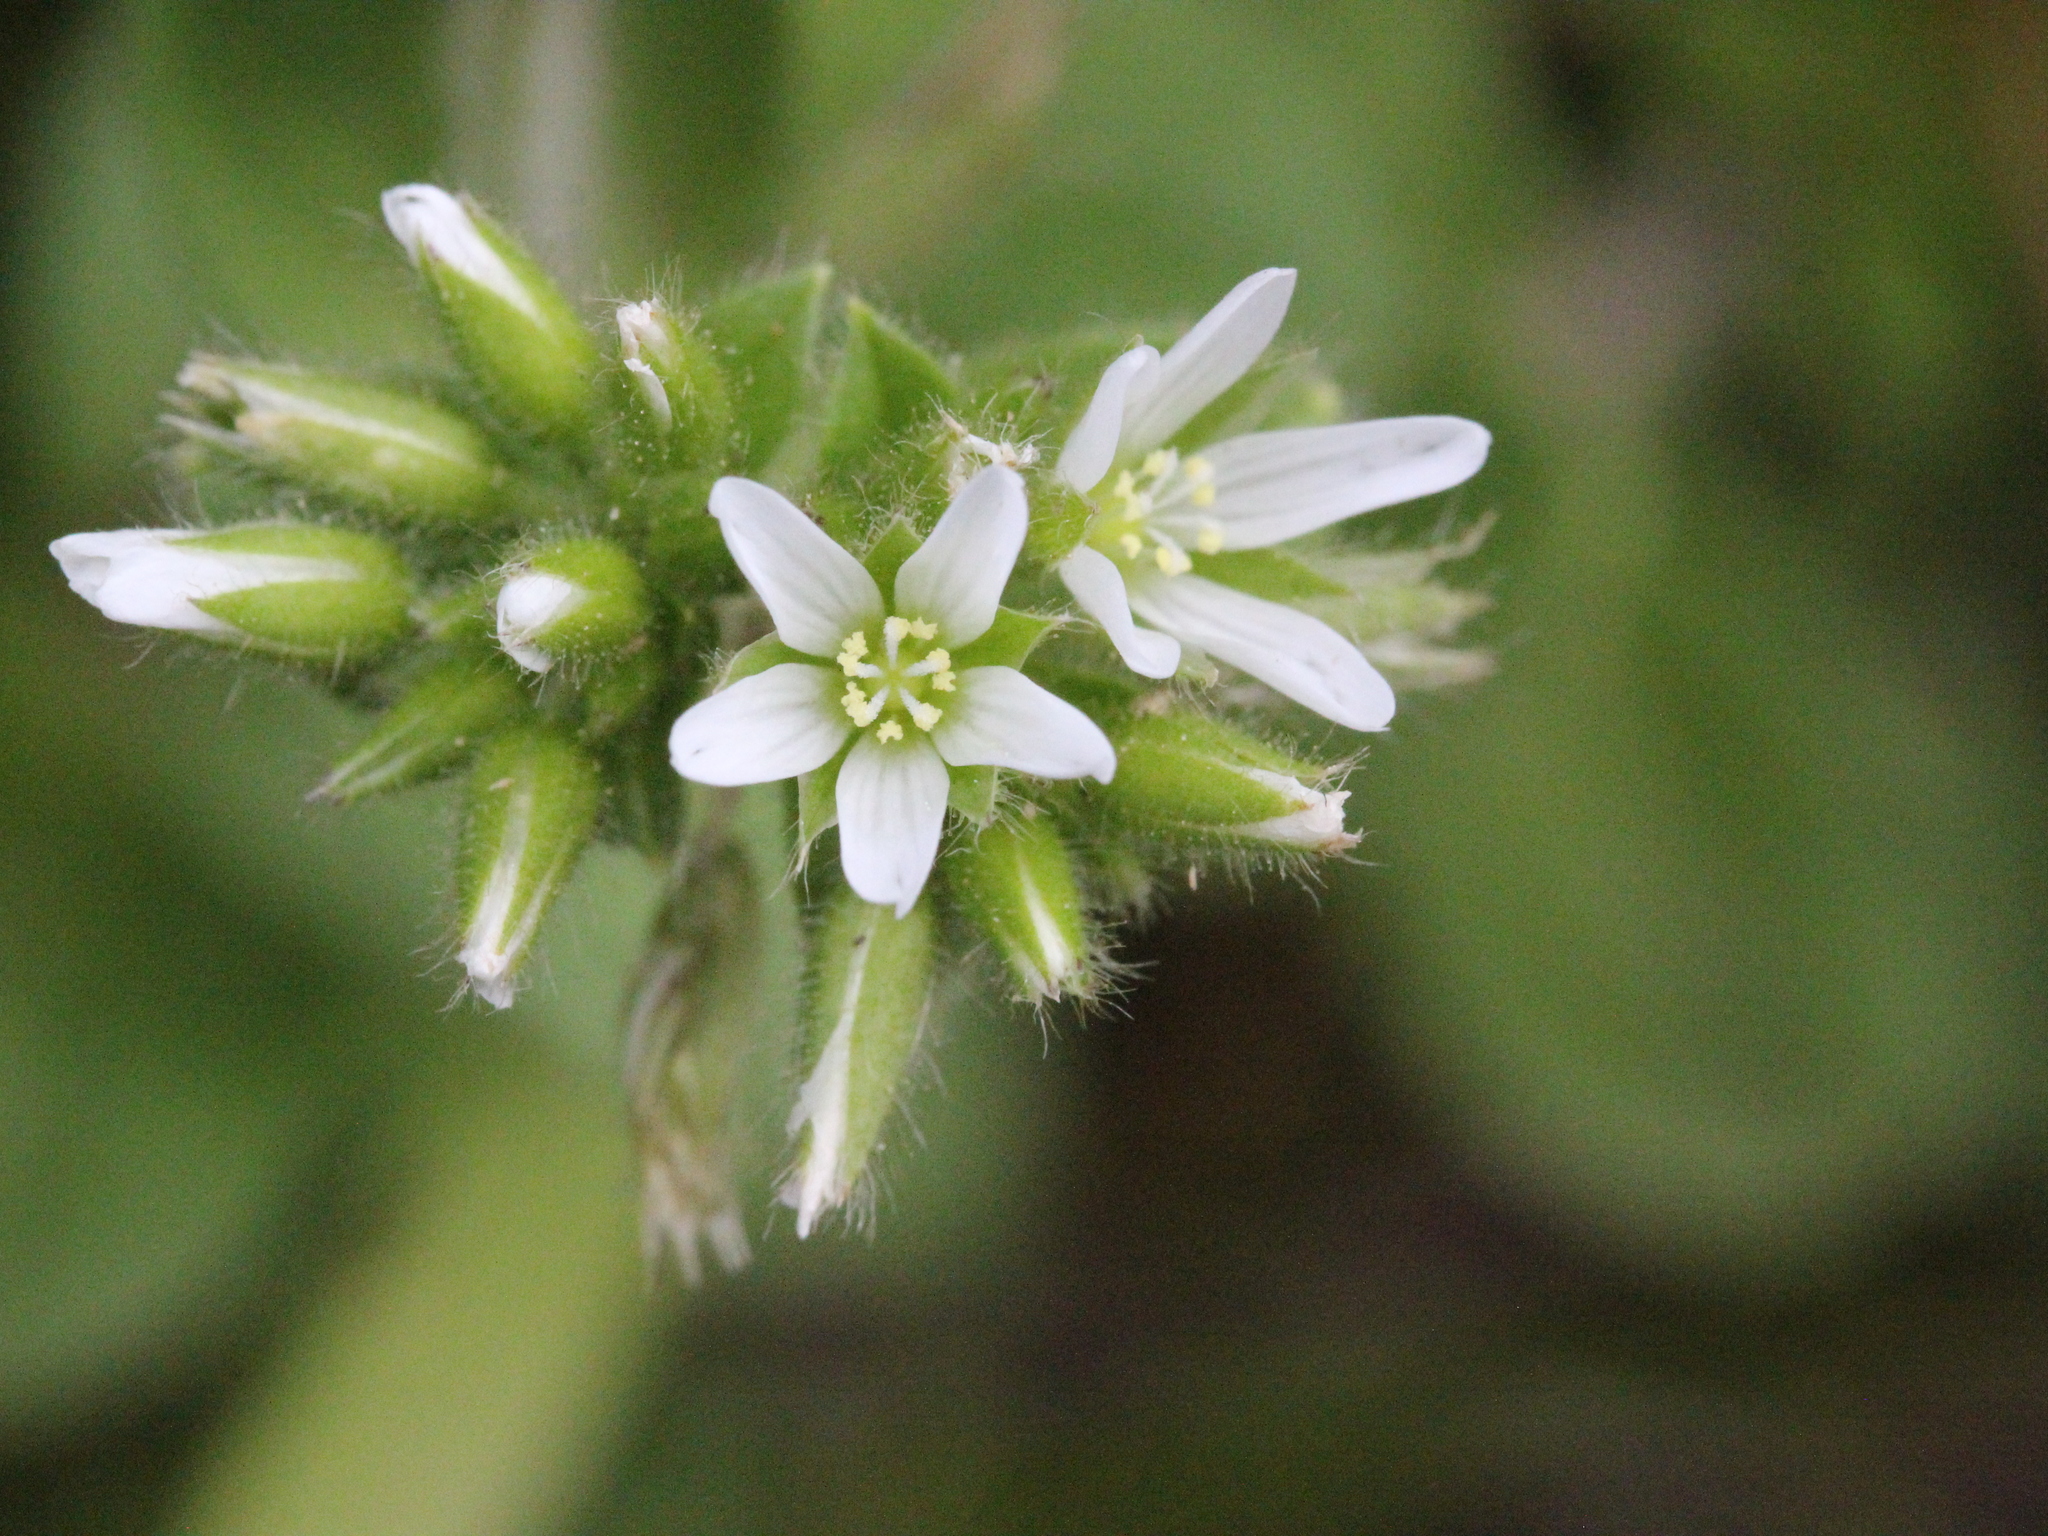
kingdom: Plantae
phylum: Tracheophyta
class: Magnoliopsida
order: Caryophyllales
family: Caryophyllaceae
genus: Cerastium
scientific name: Cerastium glomeratum
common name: Sticky chickweed
